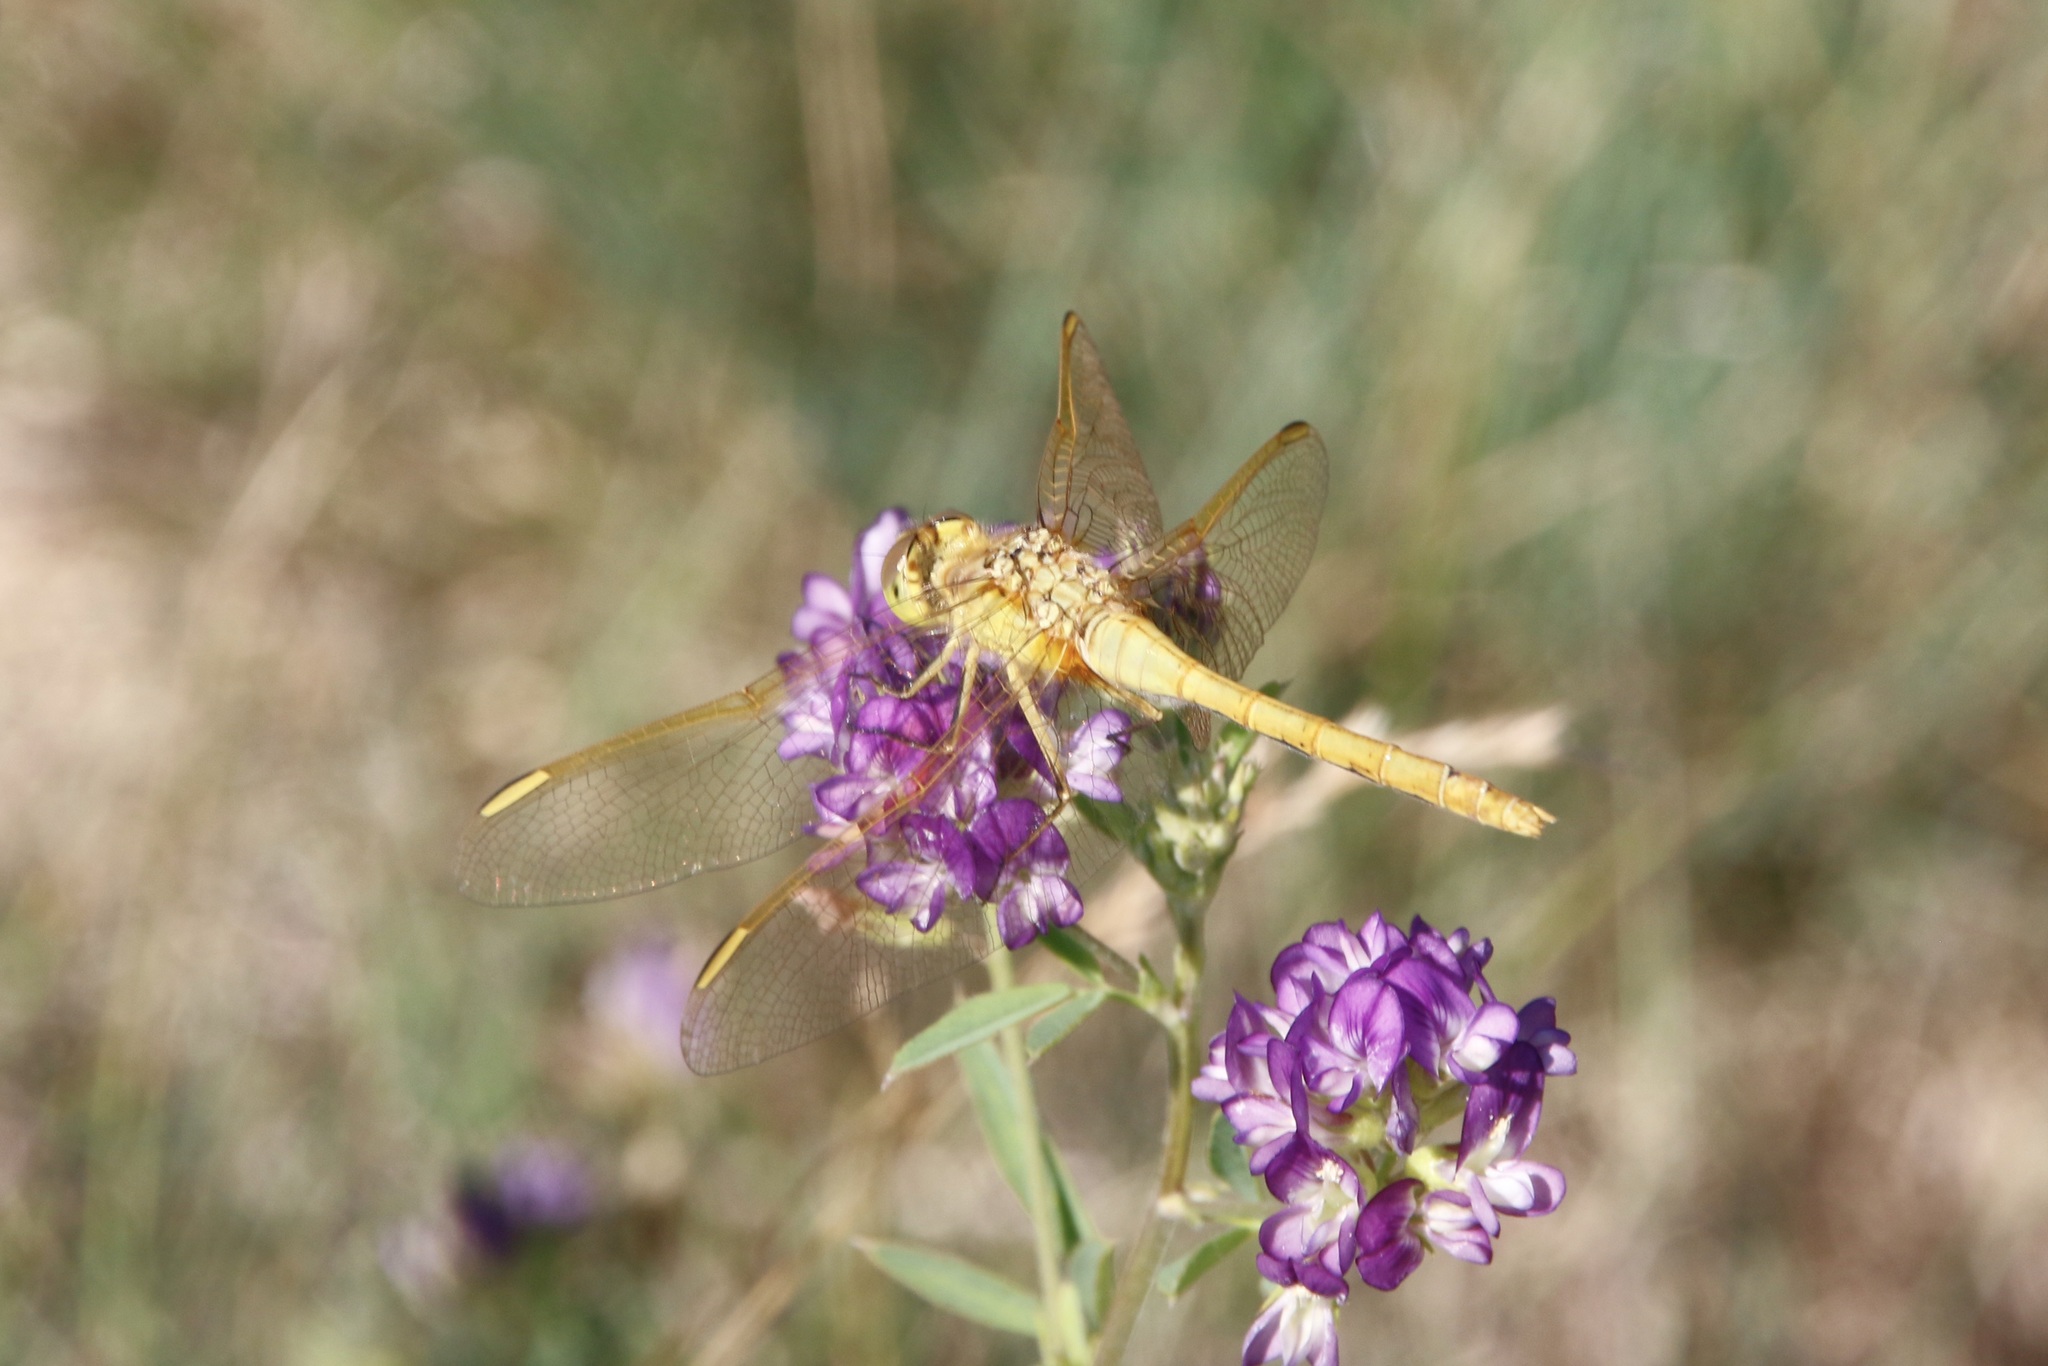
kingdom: Animalia
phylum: Arthropoda
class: Insecta
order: Odonata
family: Libellulidae
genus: Sympetrum
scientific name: Sympetrum costiferum
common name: Saffron-winged meadowhawk
